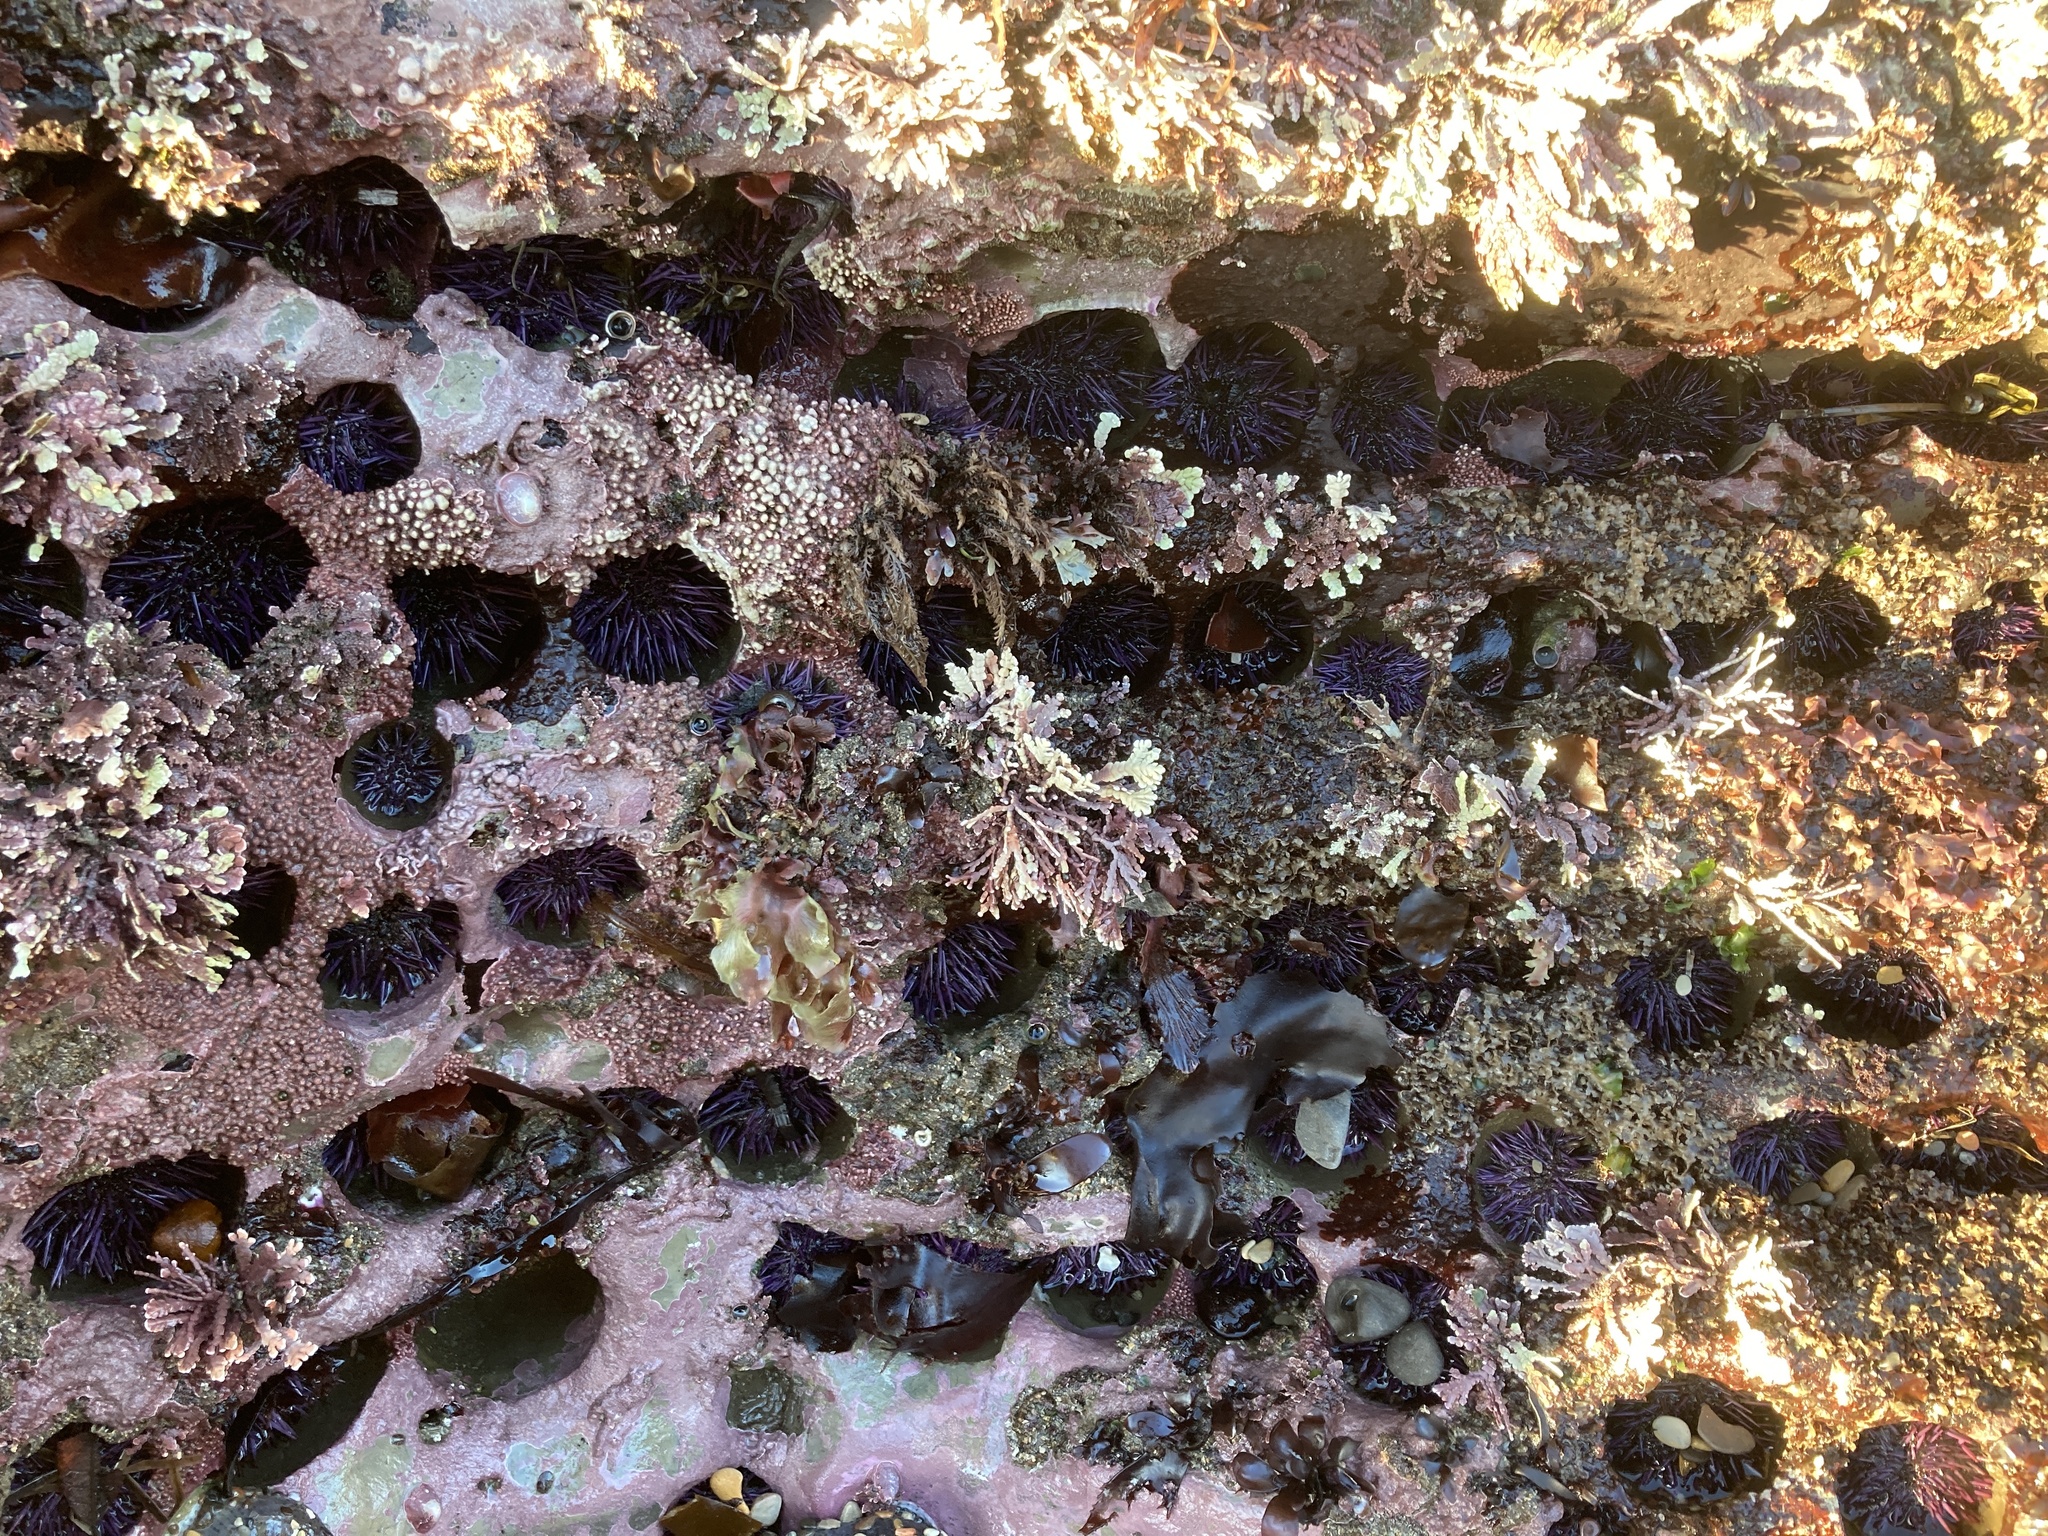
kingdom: Animalia
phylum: Echinodermata
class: Echinoidea
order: Camarodonta
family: Strongylocentrotidae
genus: Strongylocentrotus
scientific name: Strongylocentrotus purpuratus
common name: Purple sea urchin
